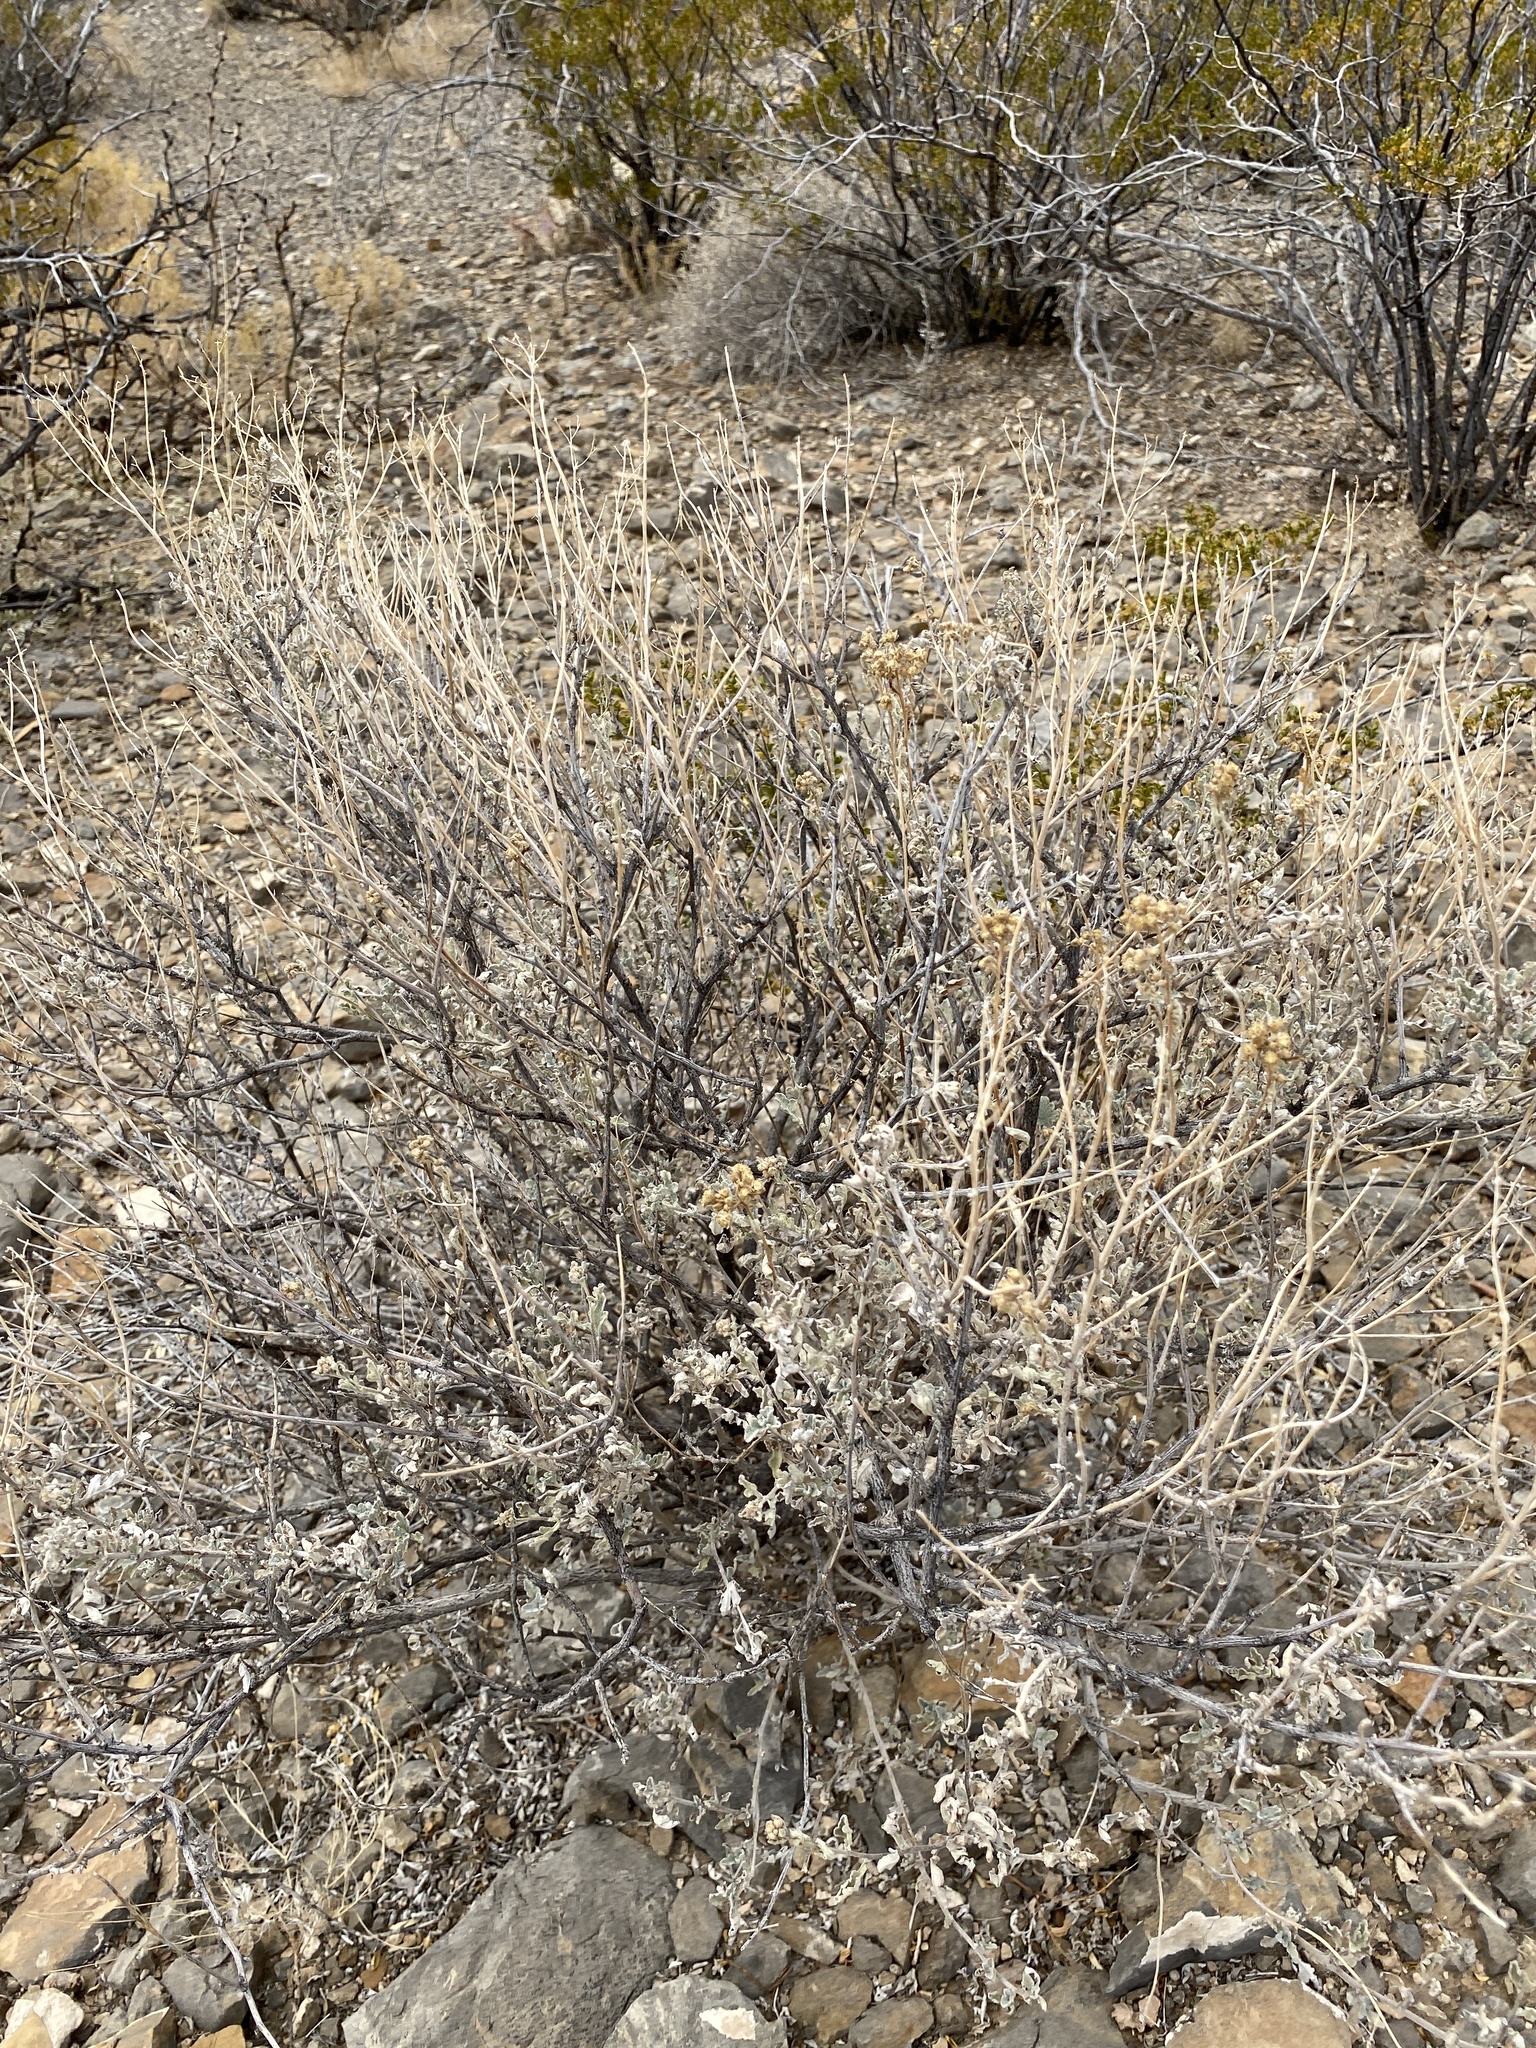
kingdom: Plantae
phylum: Tracheophyta
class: Magnoliopsida
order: Asterales
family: Asteraceae
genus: Parthenium
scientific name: Parthenium incanum
